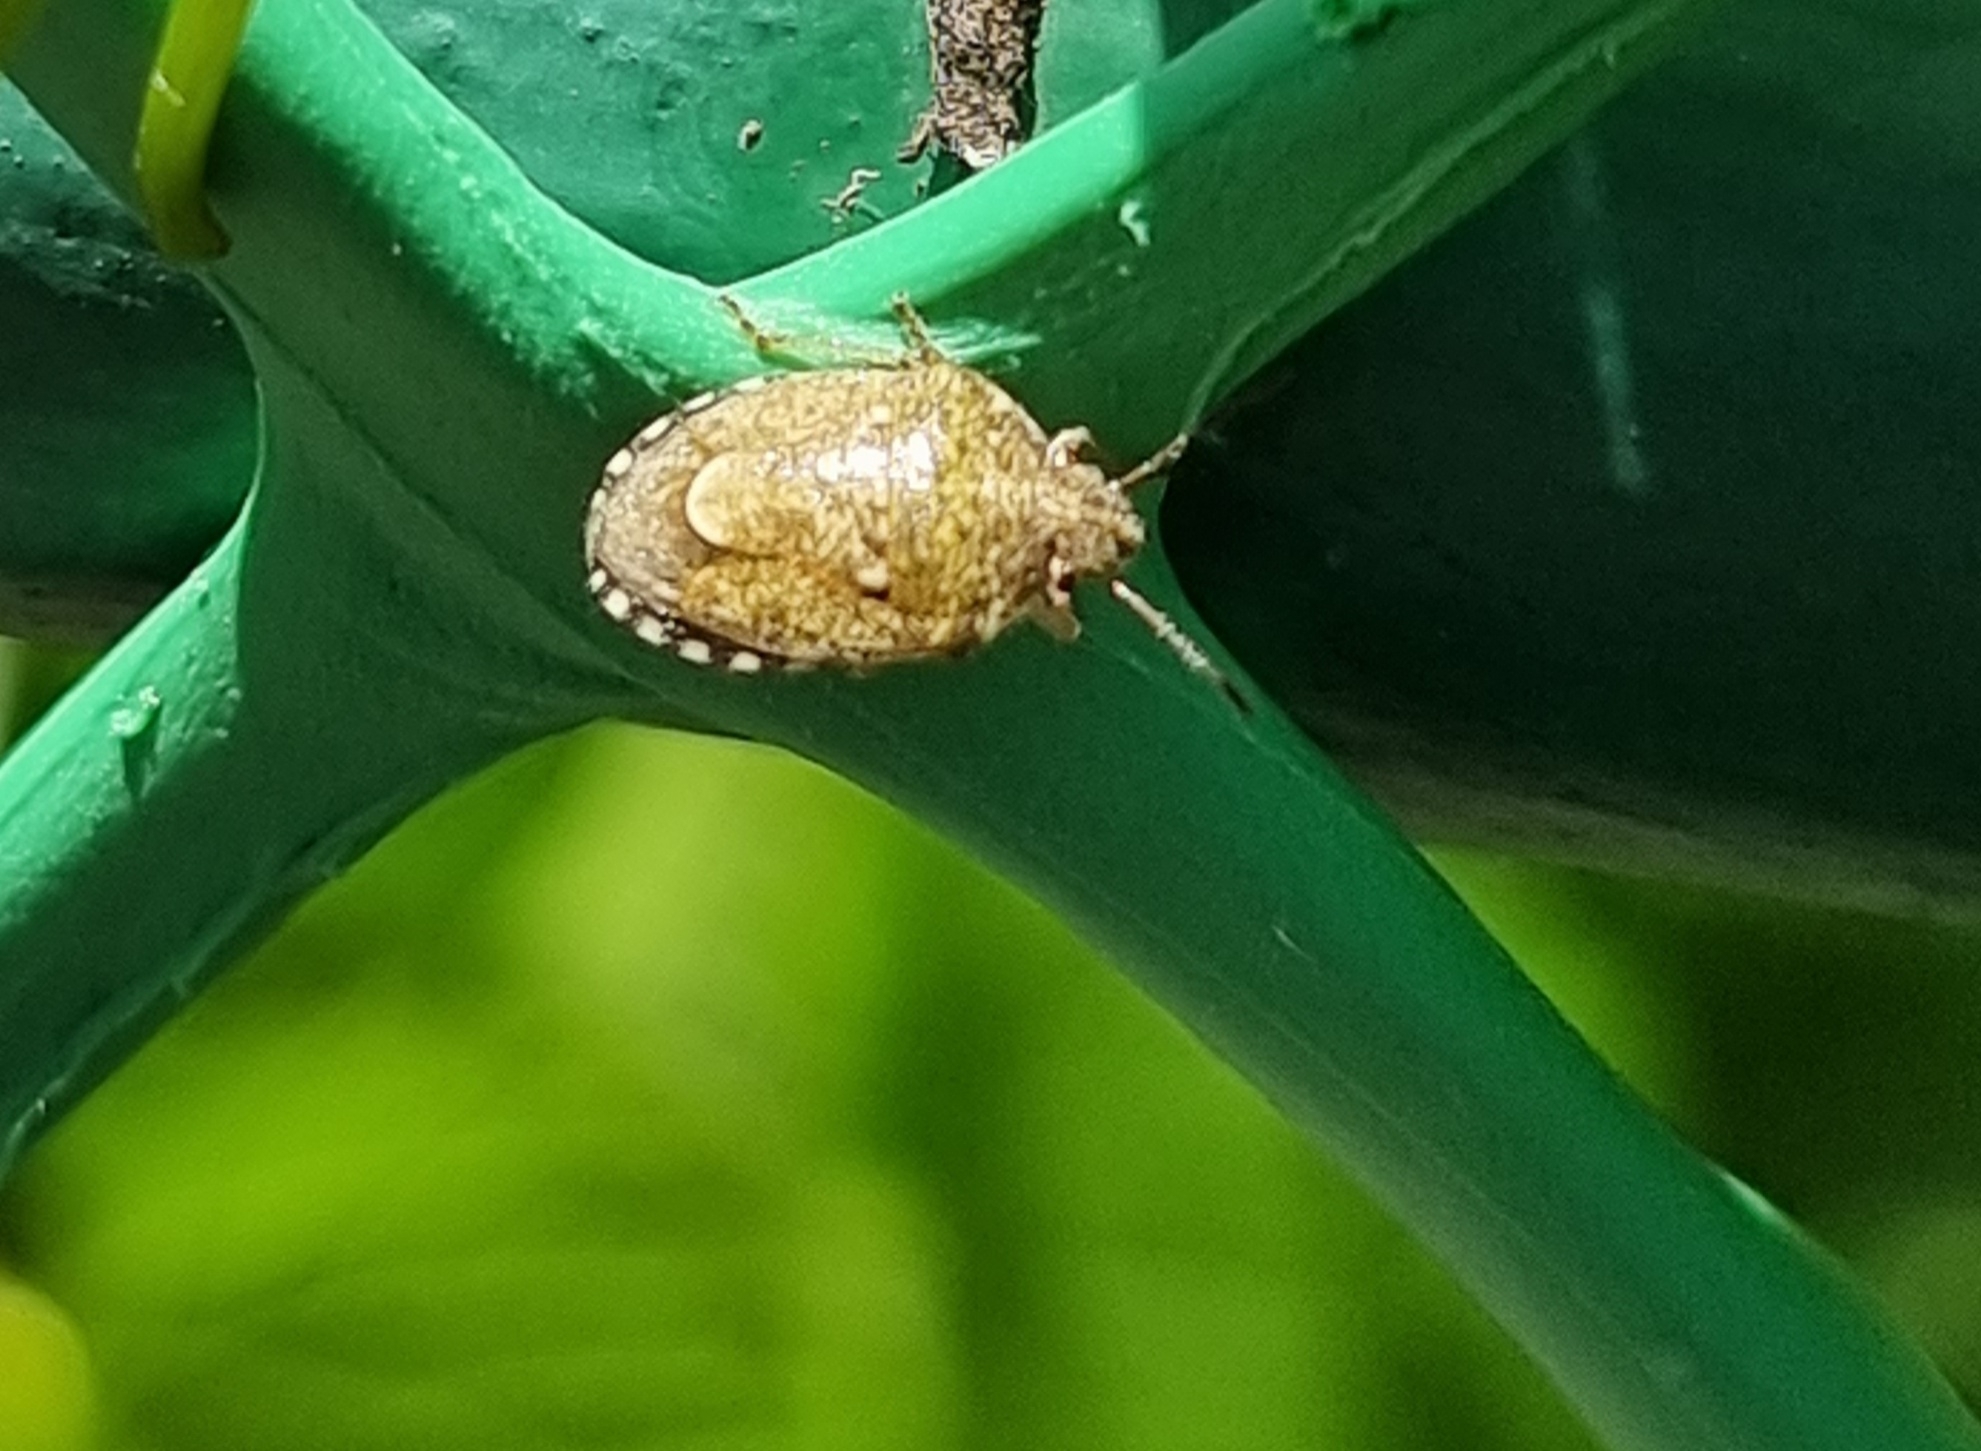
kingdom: Animalia
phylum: Arthropoda
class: Insecta
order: Hemiptera
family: Pentatomidae
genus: Staria
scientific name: Staria lunata
